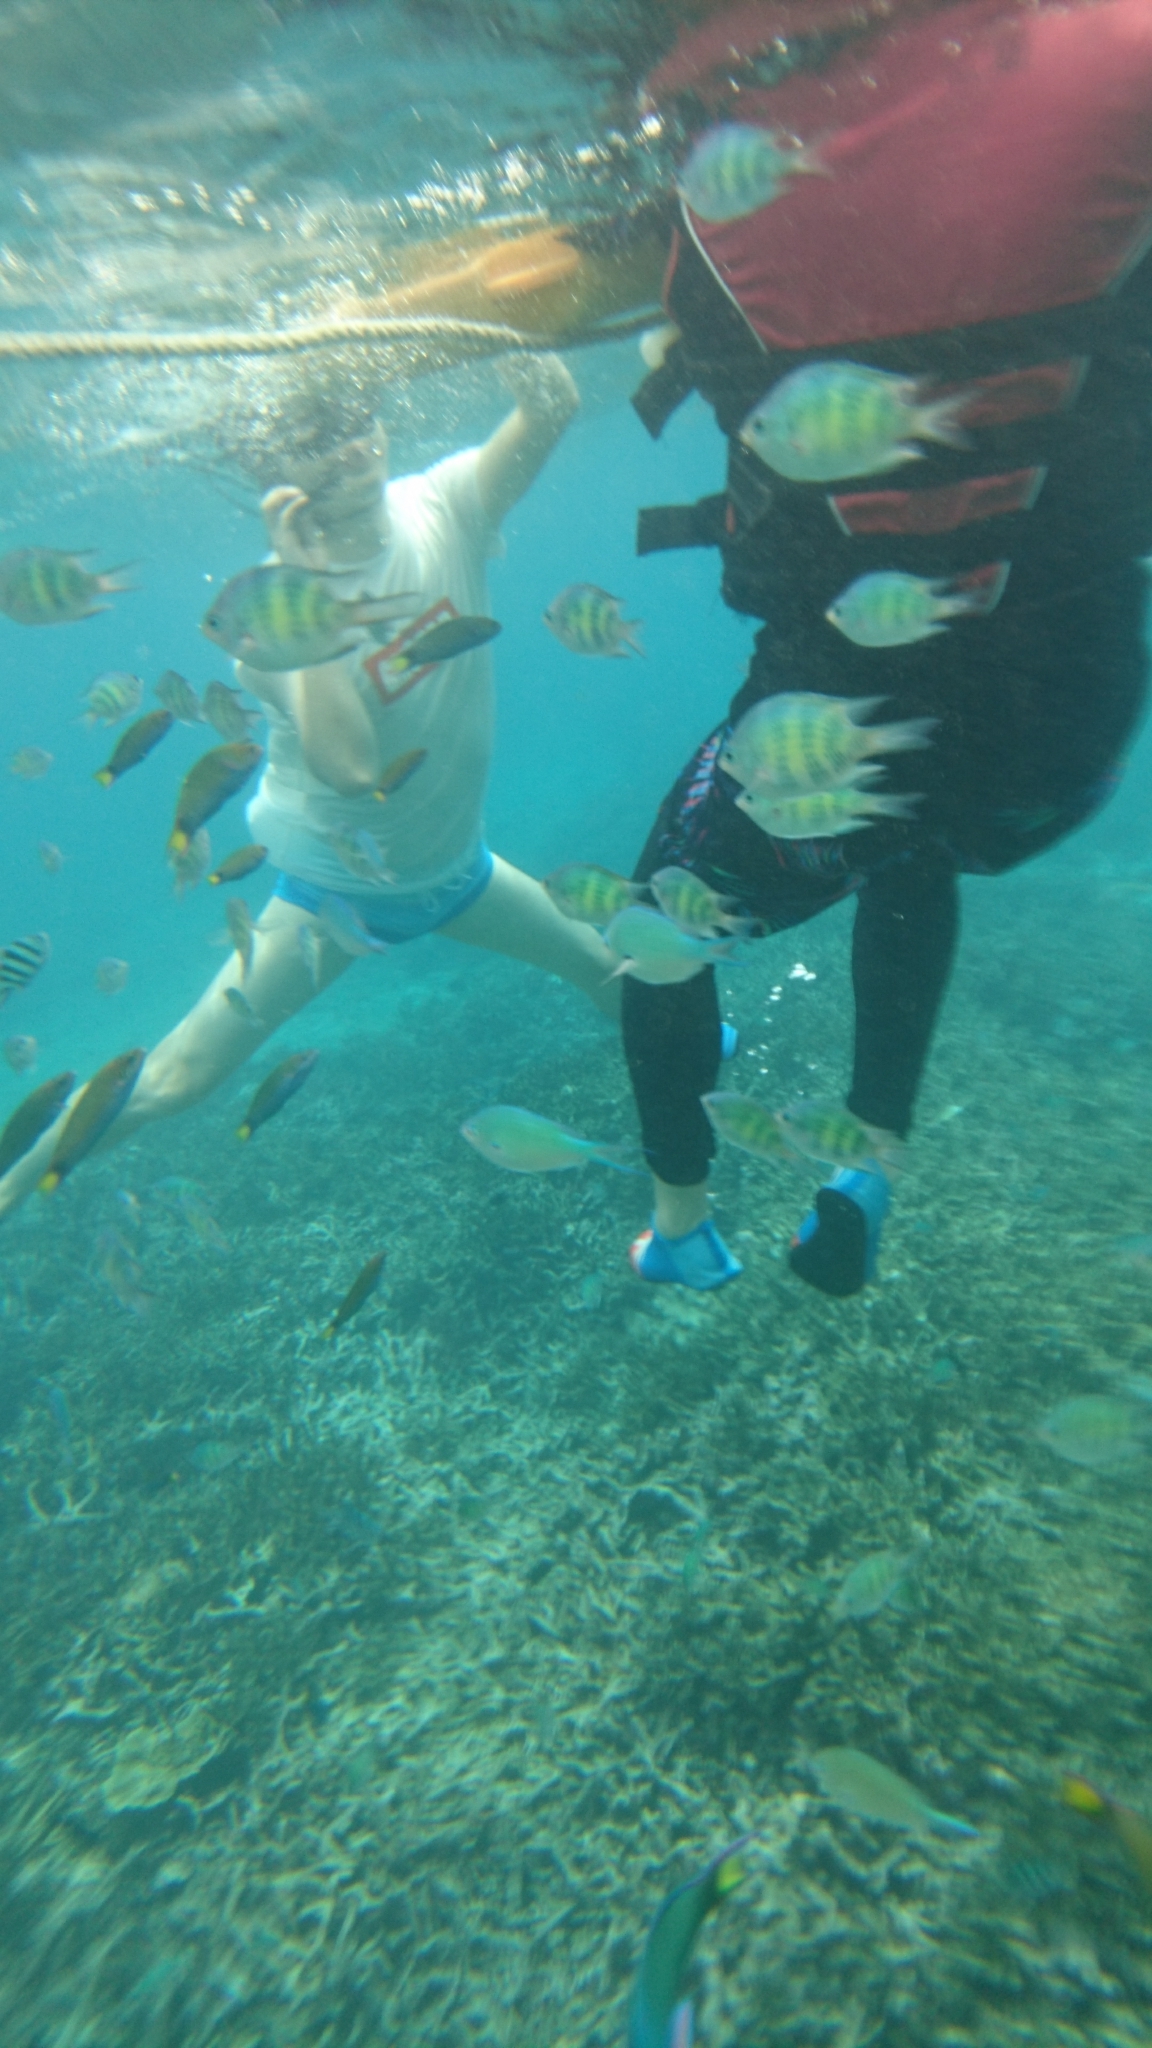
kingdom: Animalia
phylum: Chordata
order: Perciformes
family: Pomacentridae
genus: Amblyglyphidodon
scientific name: Amblyglyphidodon curacao
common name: Staghorn damsel
